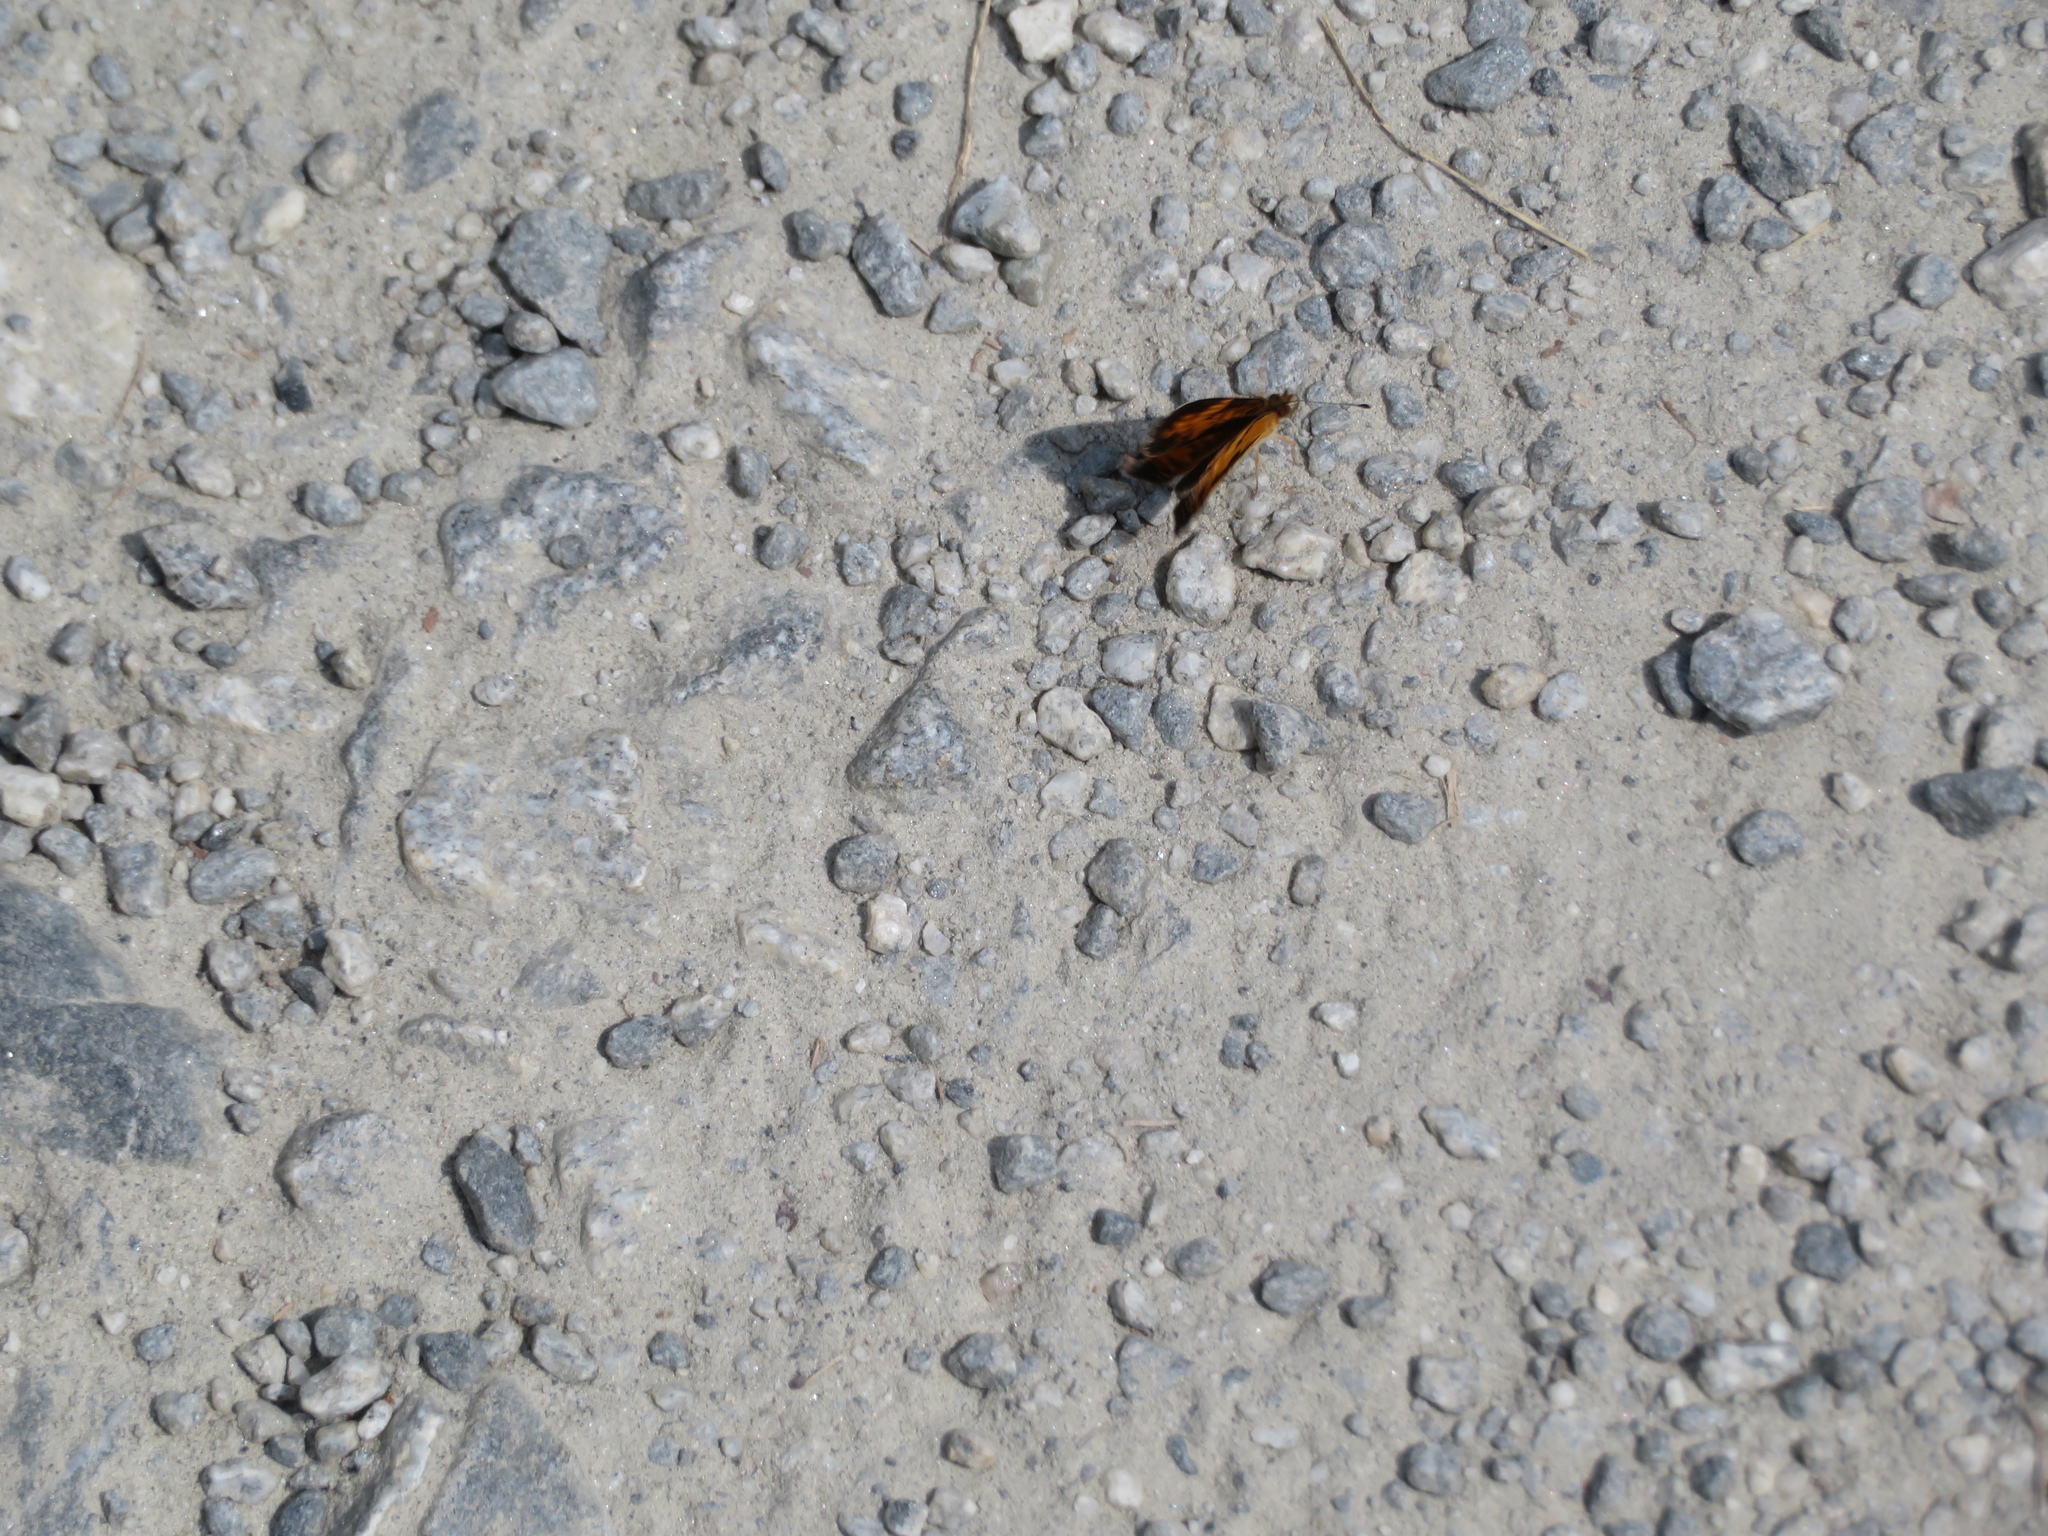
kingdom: Animalia
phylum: Arthropoda
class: Insecta
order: Lepidoptera
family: Nymphalidae
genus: Phyciodes
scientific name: Phyciodes tharos
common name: Pearl crescent
